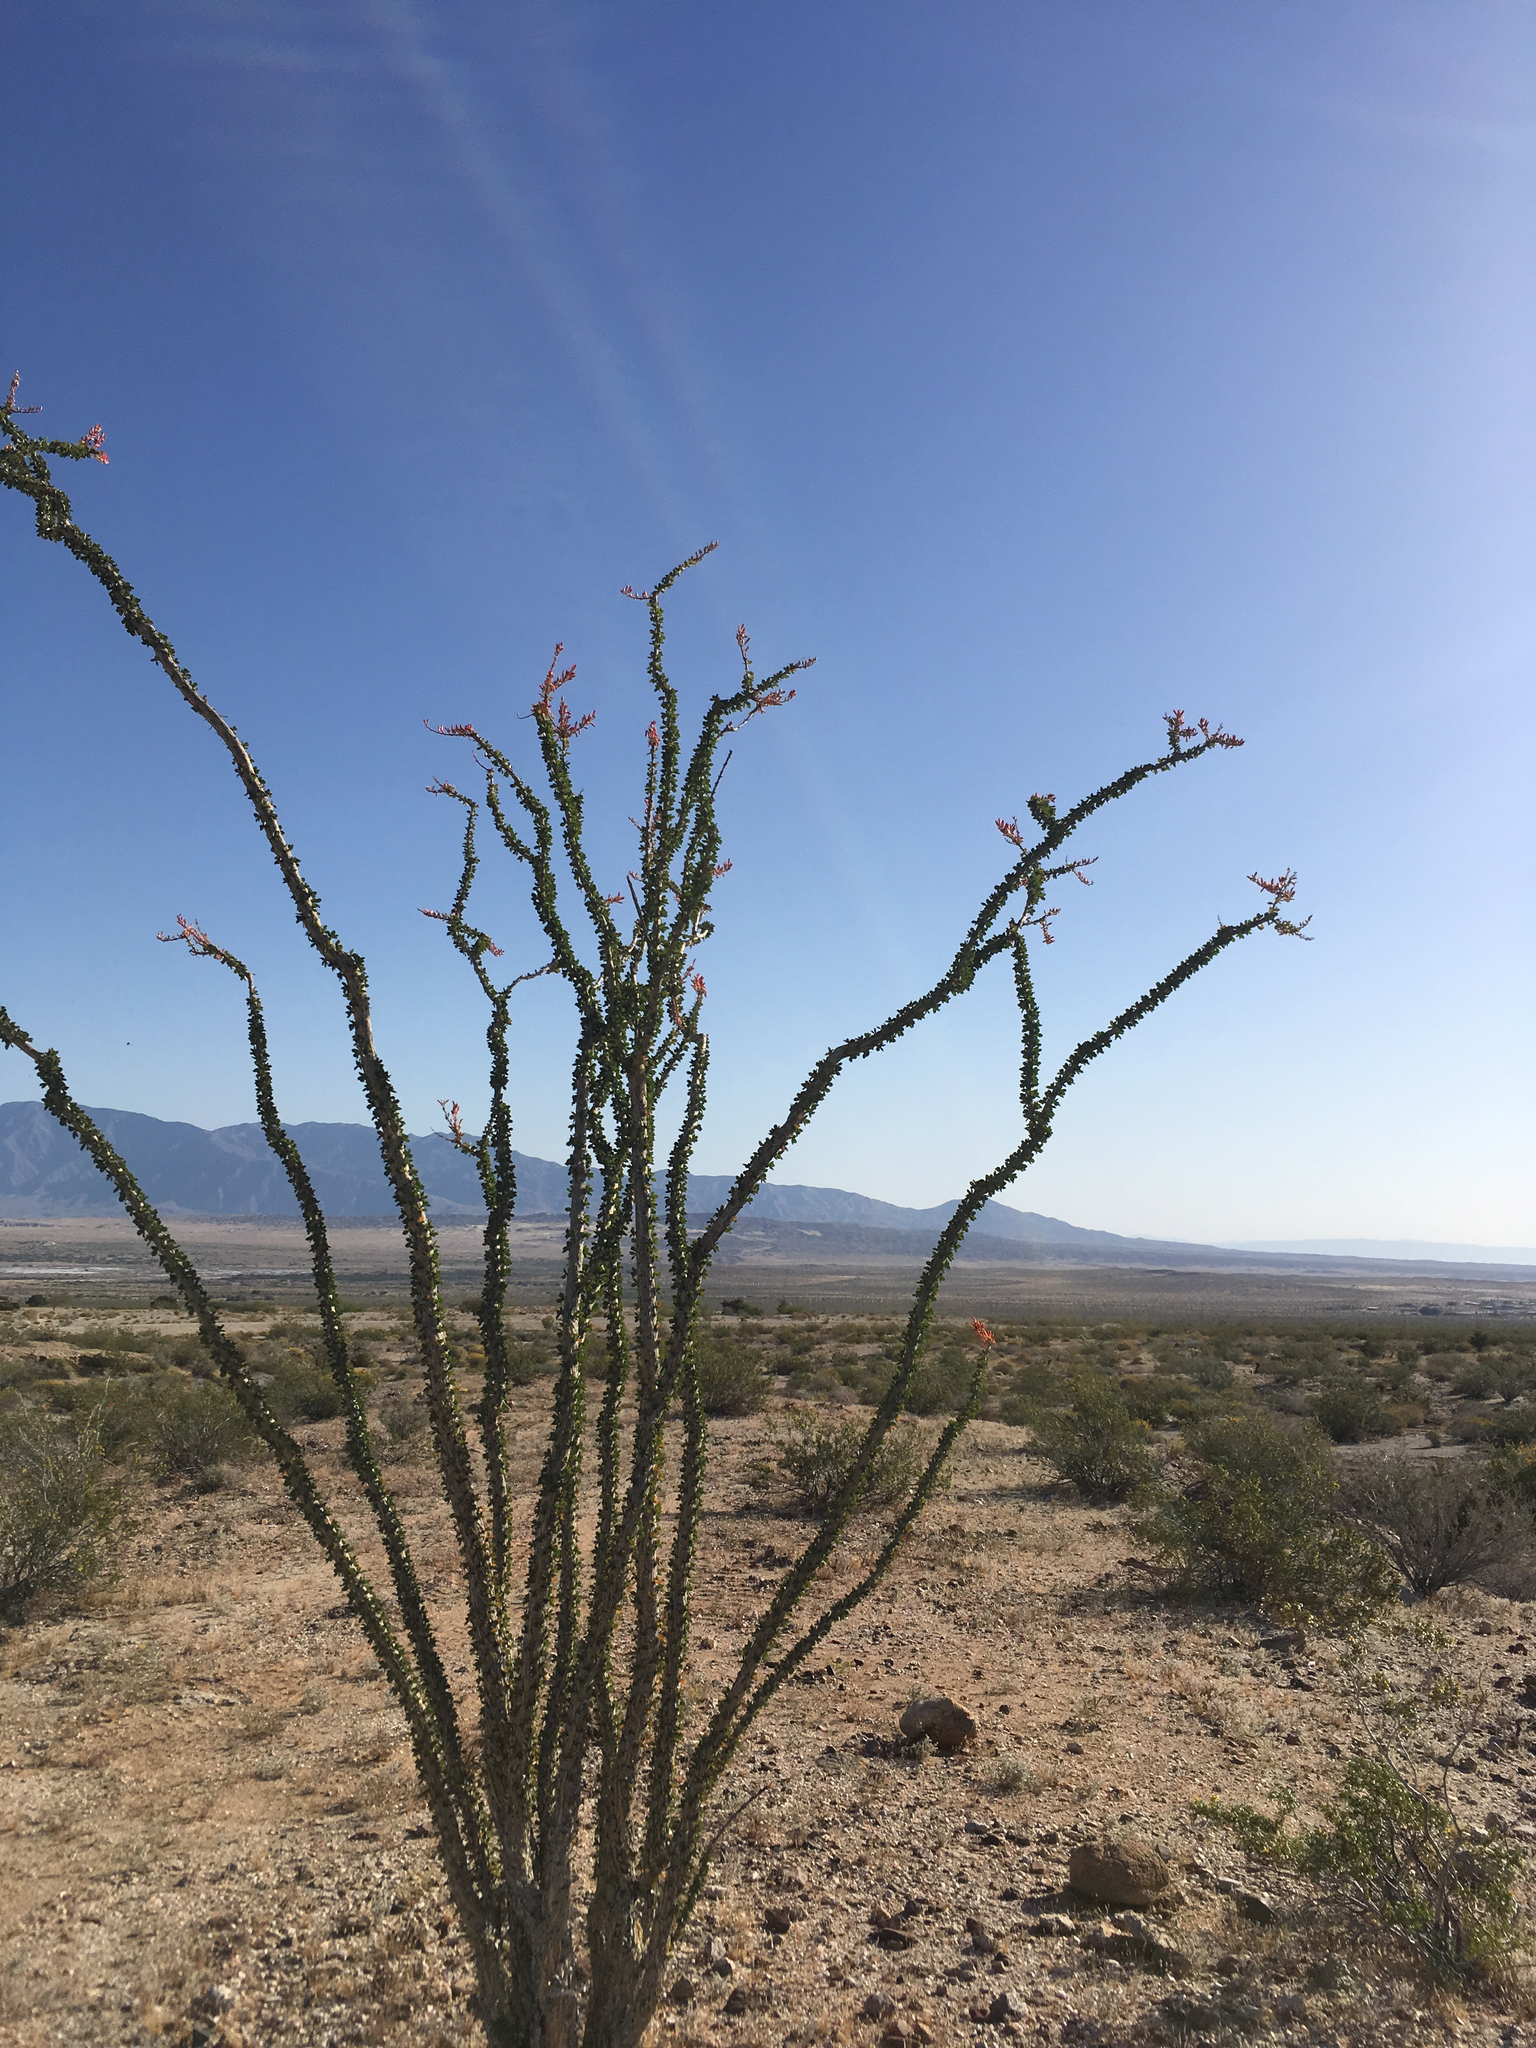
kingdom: Plantae
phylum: Tracheophyta
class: Magnoliopsida
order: Ericales
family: Fouquieriaceae
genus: Fouquieria
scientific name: Fouquieria splendens
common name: Vine-cactus
